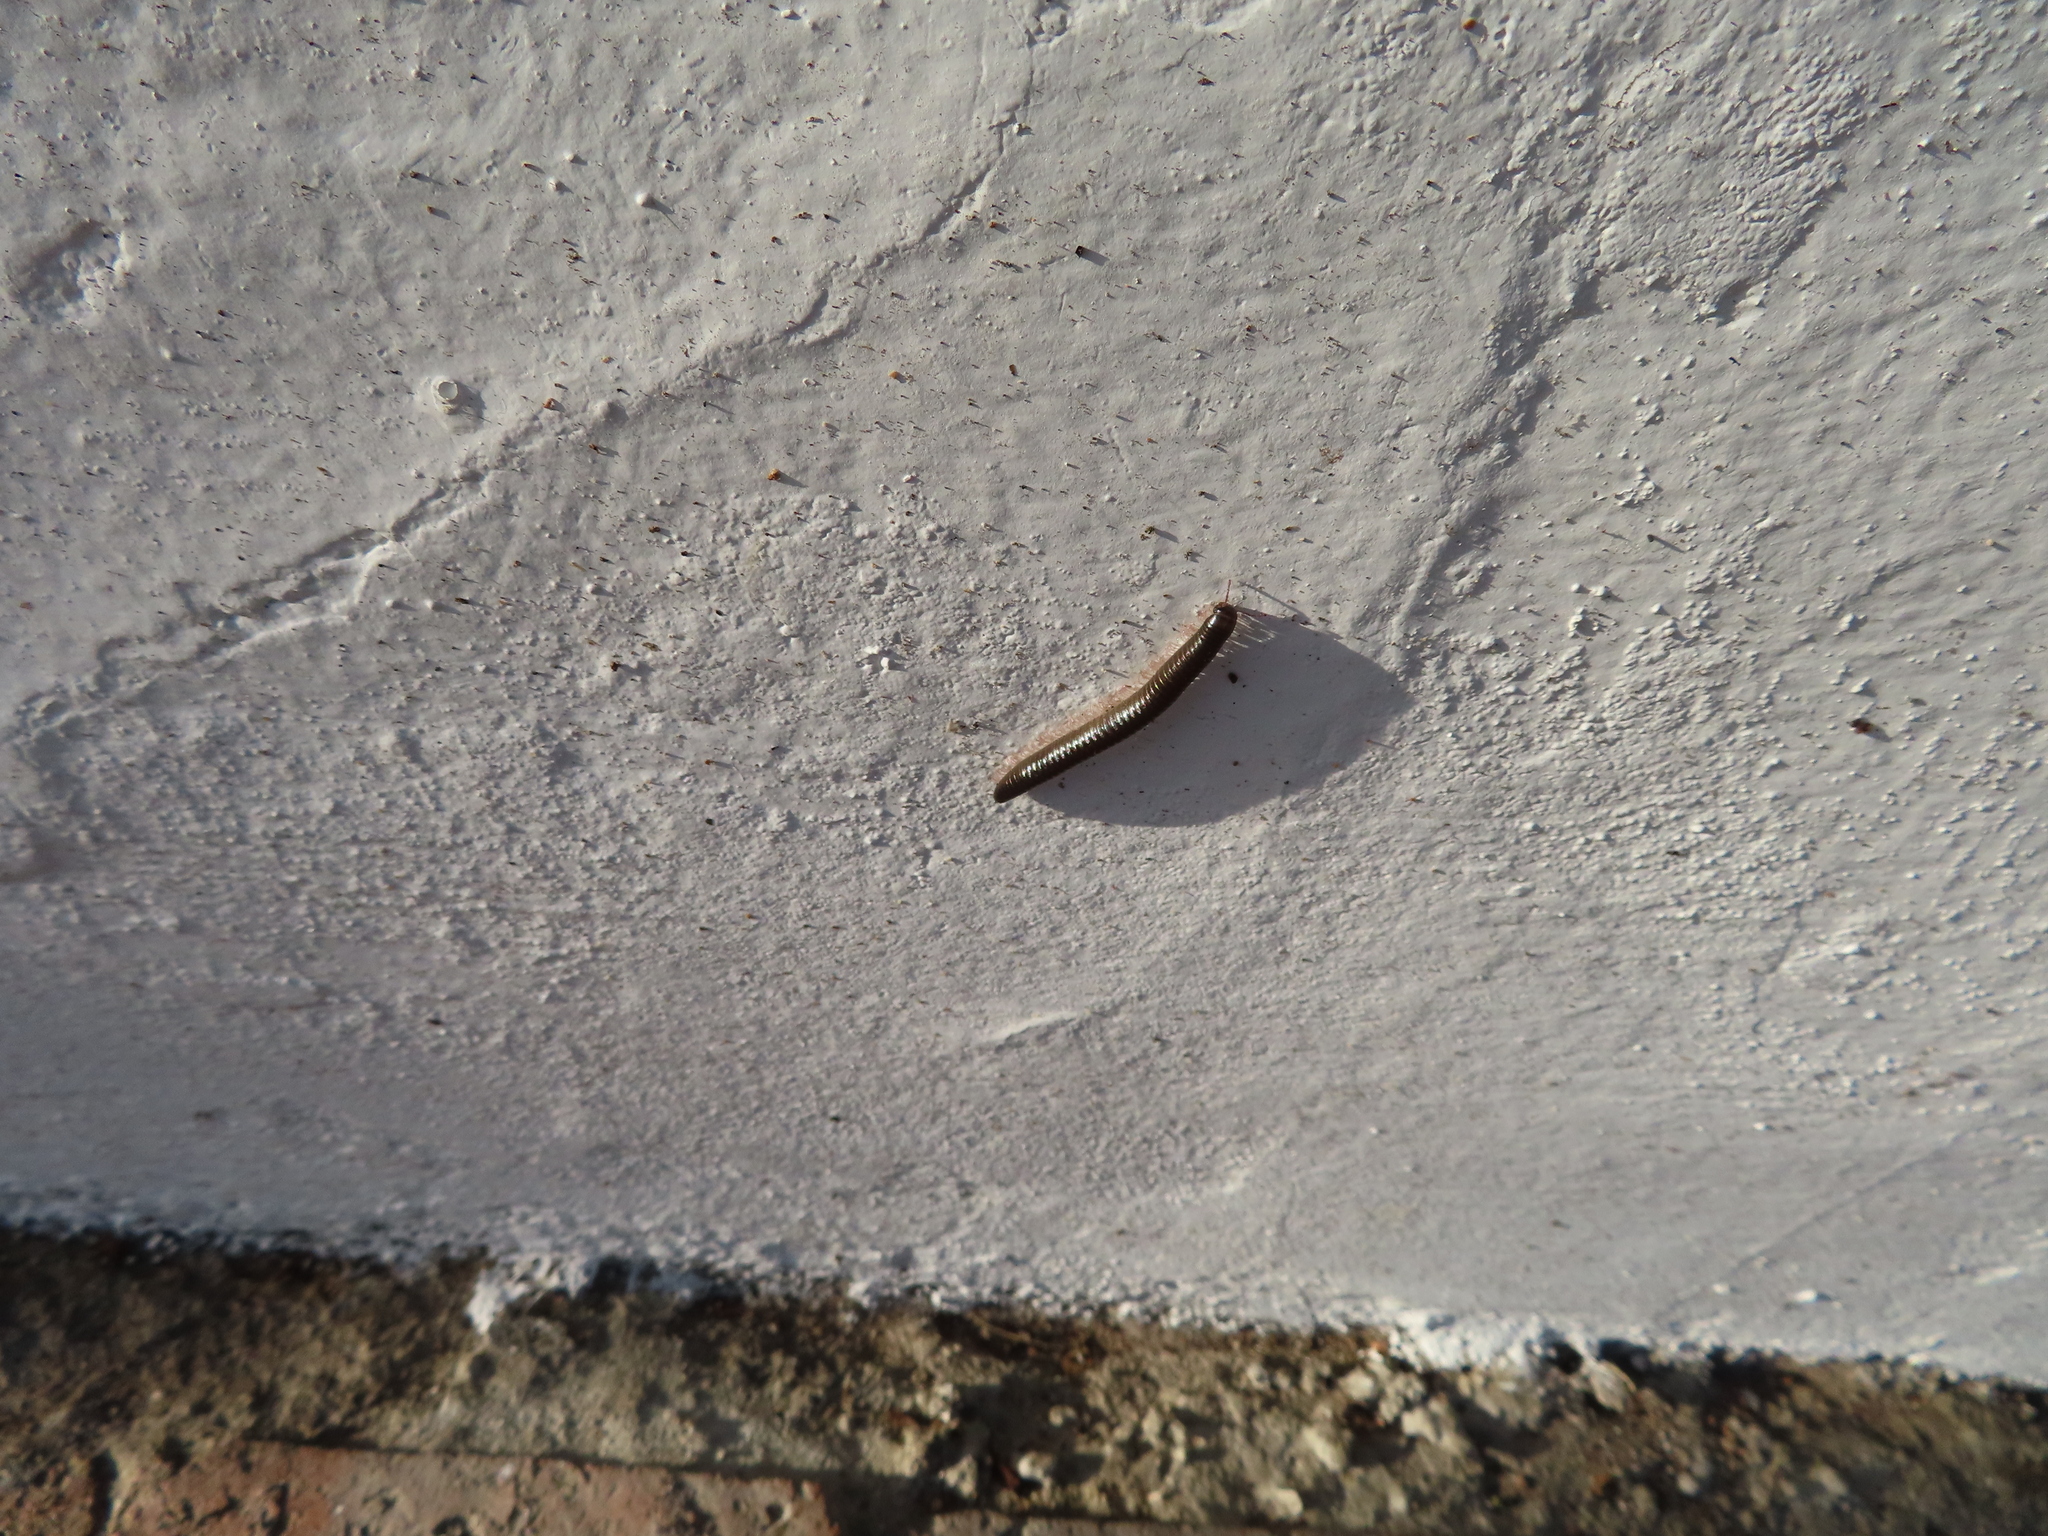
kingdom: Animalia
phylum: Arthropoda
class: Diplopoda
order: Julida
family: Julidae
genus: Ommatoiulus
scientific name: Ommatoiulus moreleti
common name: Portuguese millipede
